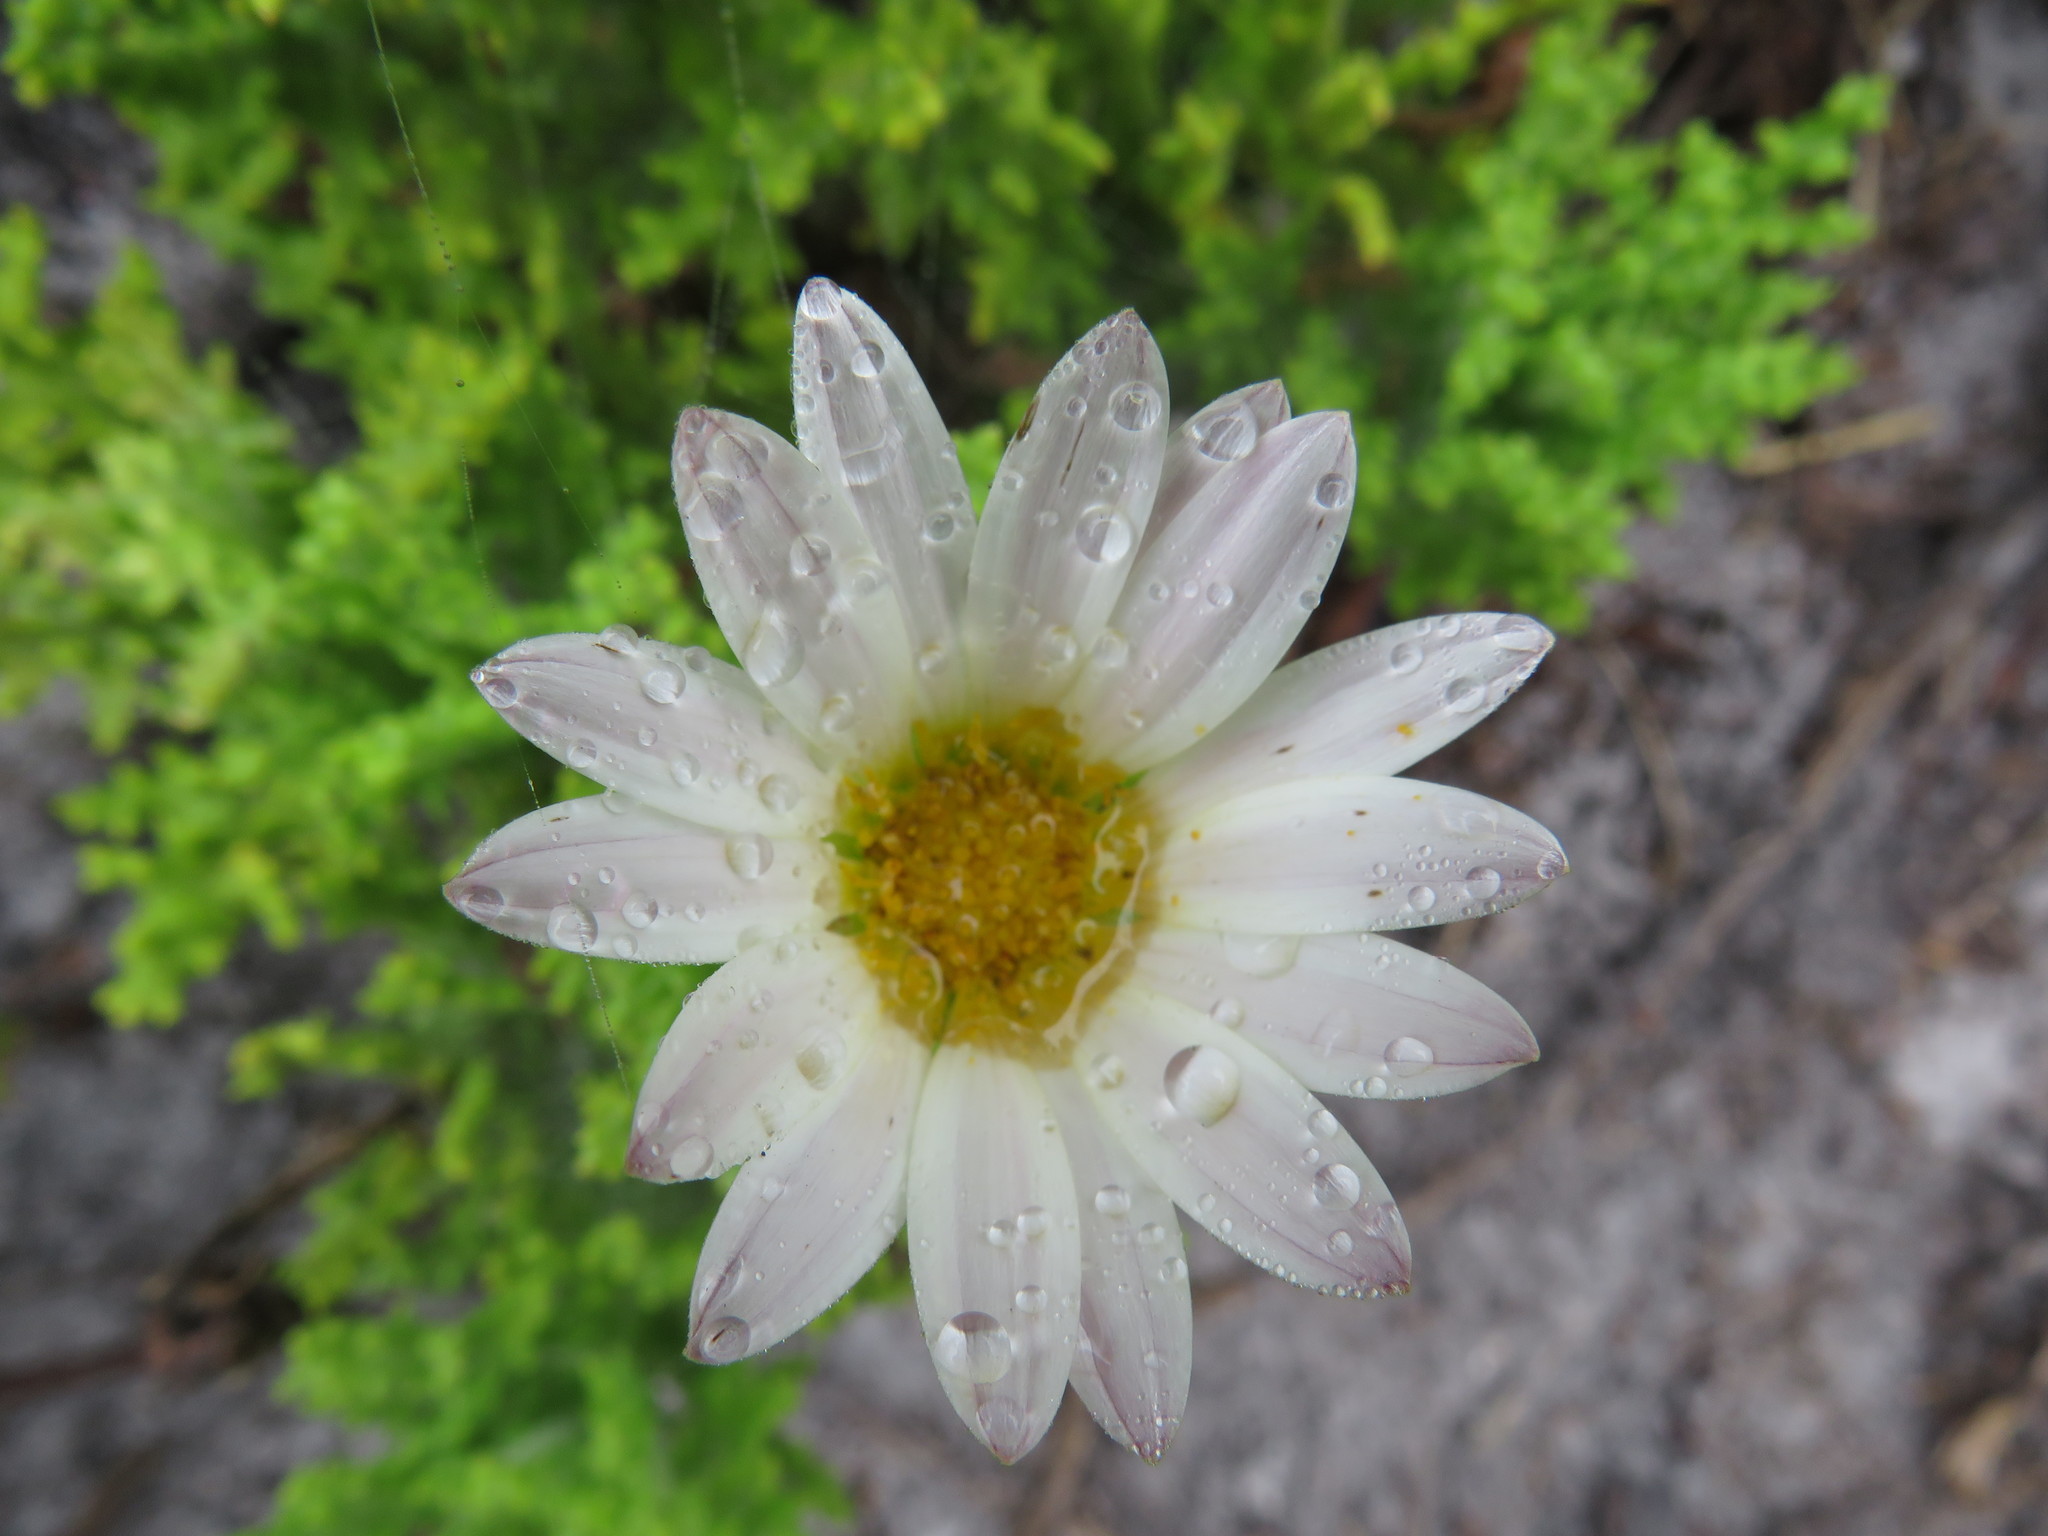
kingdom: Plantae
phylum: Tracheophyta
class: Magnoliopsida
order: Asterales
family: Asteraceae
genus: Arctotis
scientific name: Arctotis aspera
